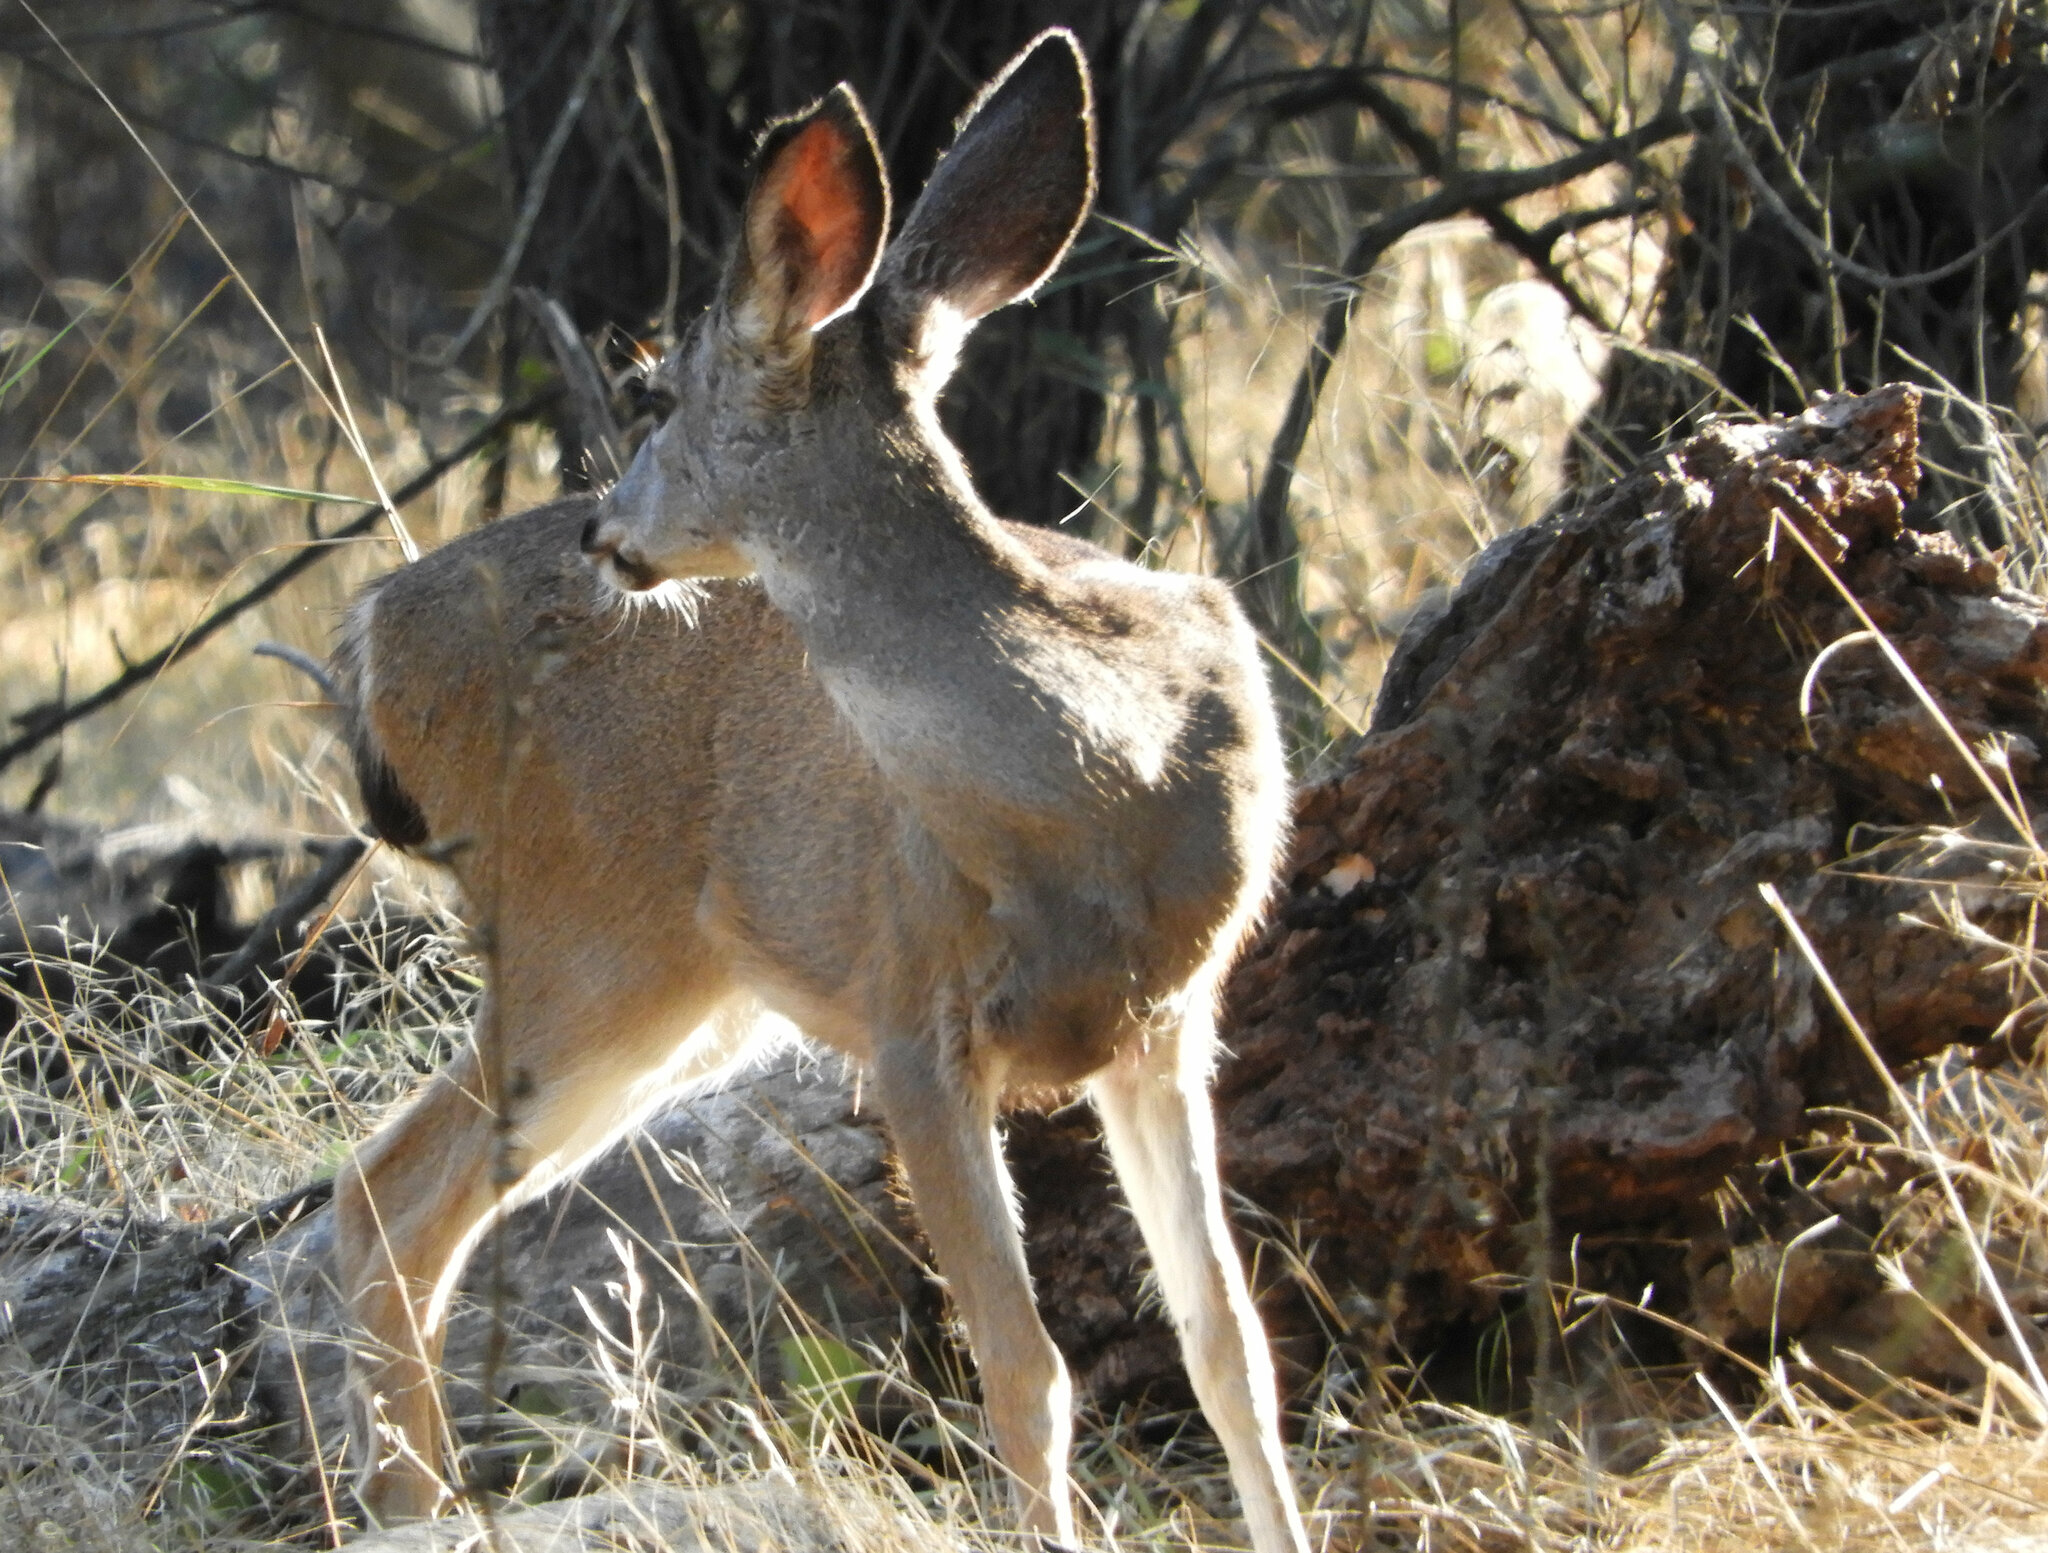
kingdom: Animalia
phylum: Chordata
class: Mammalia
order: Artiodactyla
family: Cervidae
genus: Odocoileus
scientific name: Odocoileus hemionus
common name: Mule deer
